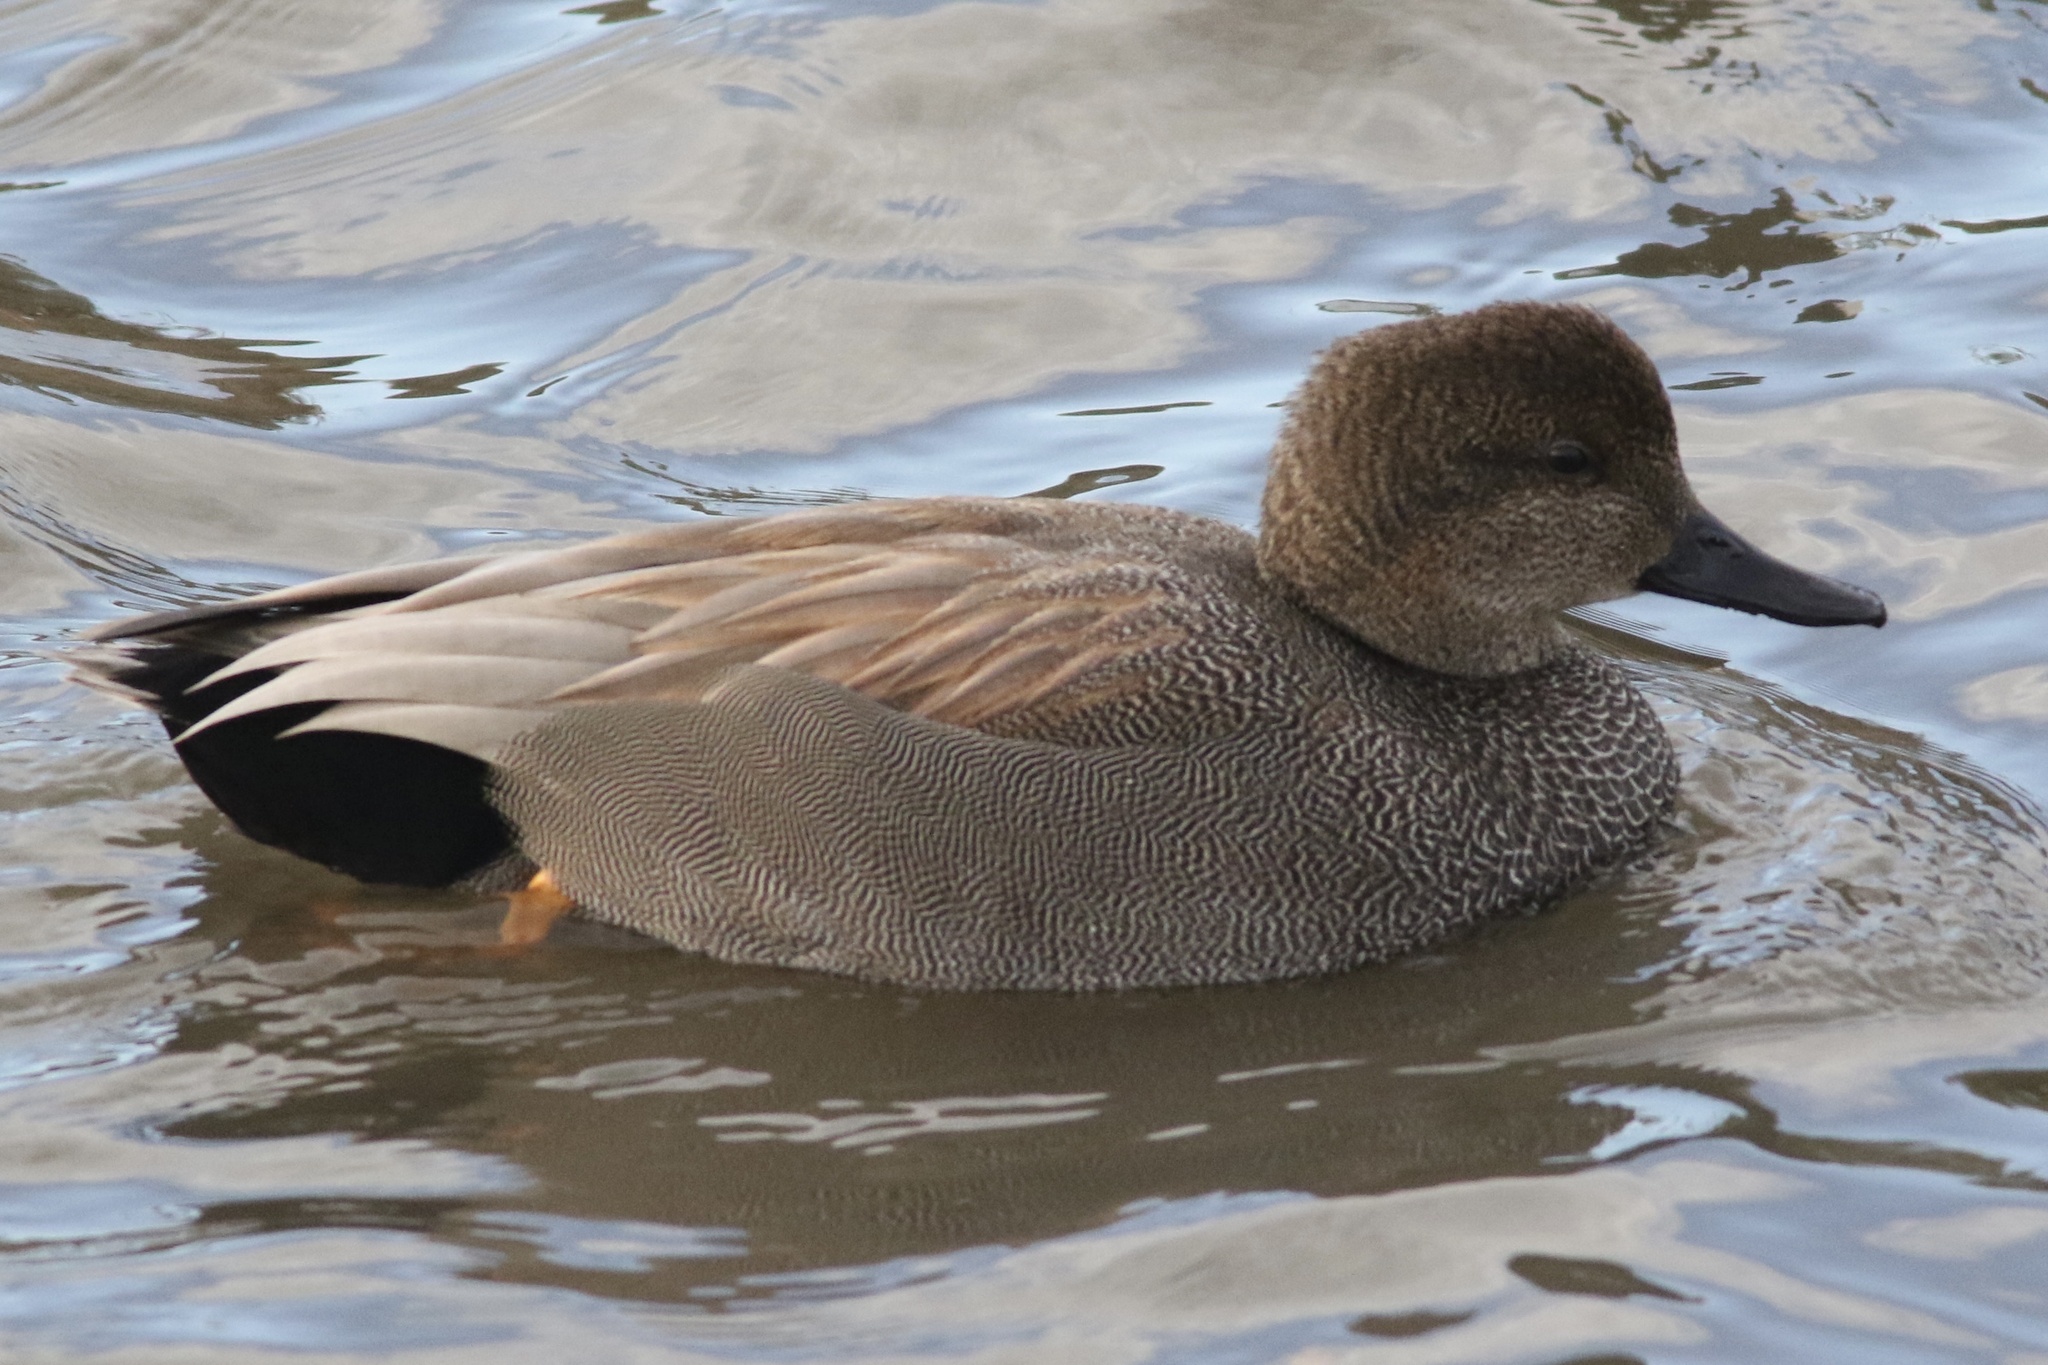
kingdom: Animalia
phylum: Chordata
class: Aves
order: Anseriformes
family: Anatidae
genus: Mareca
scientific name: Mareca strepera
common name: Gadwall
